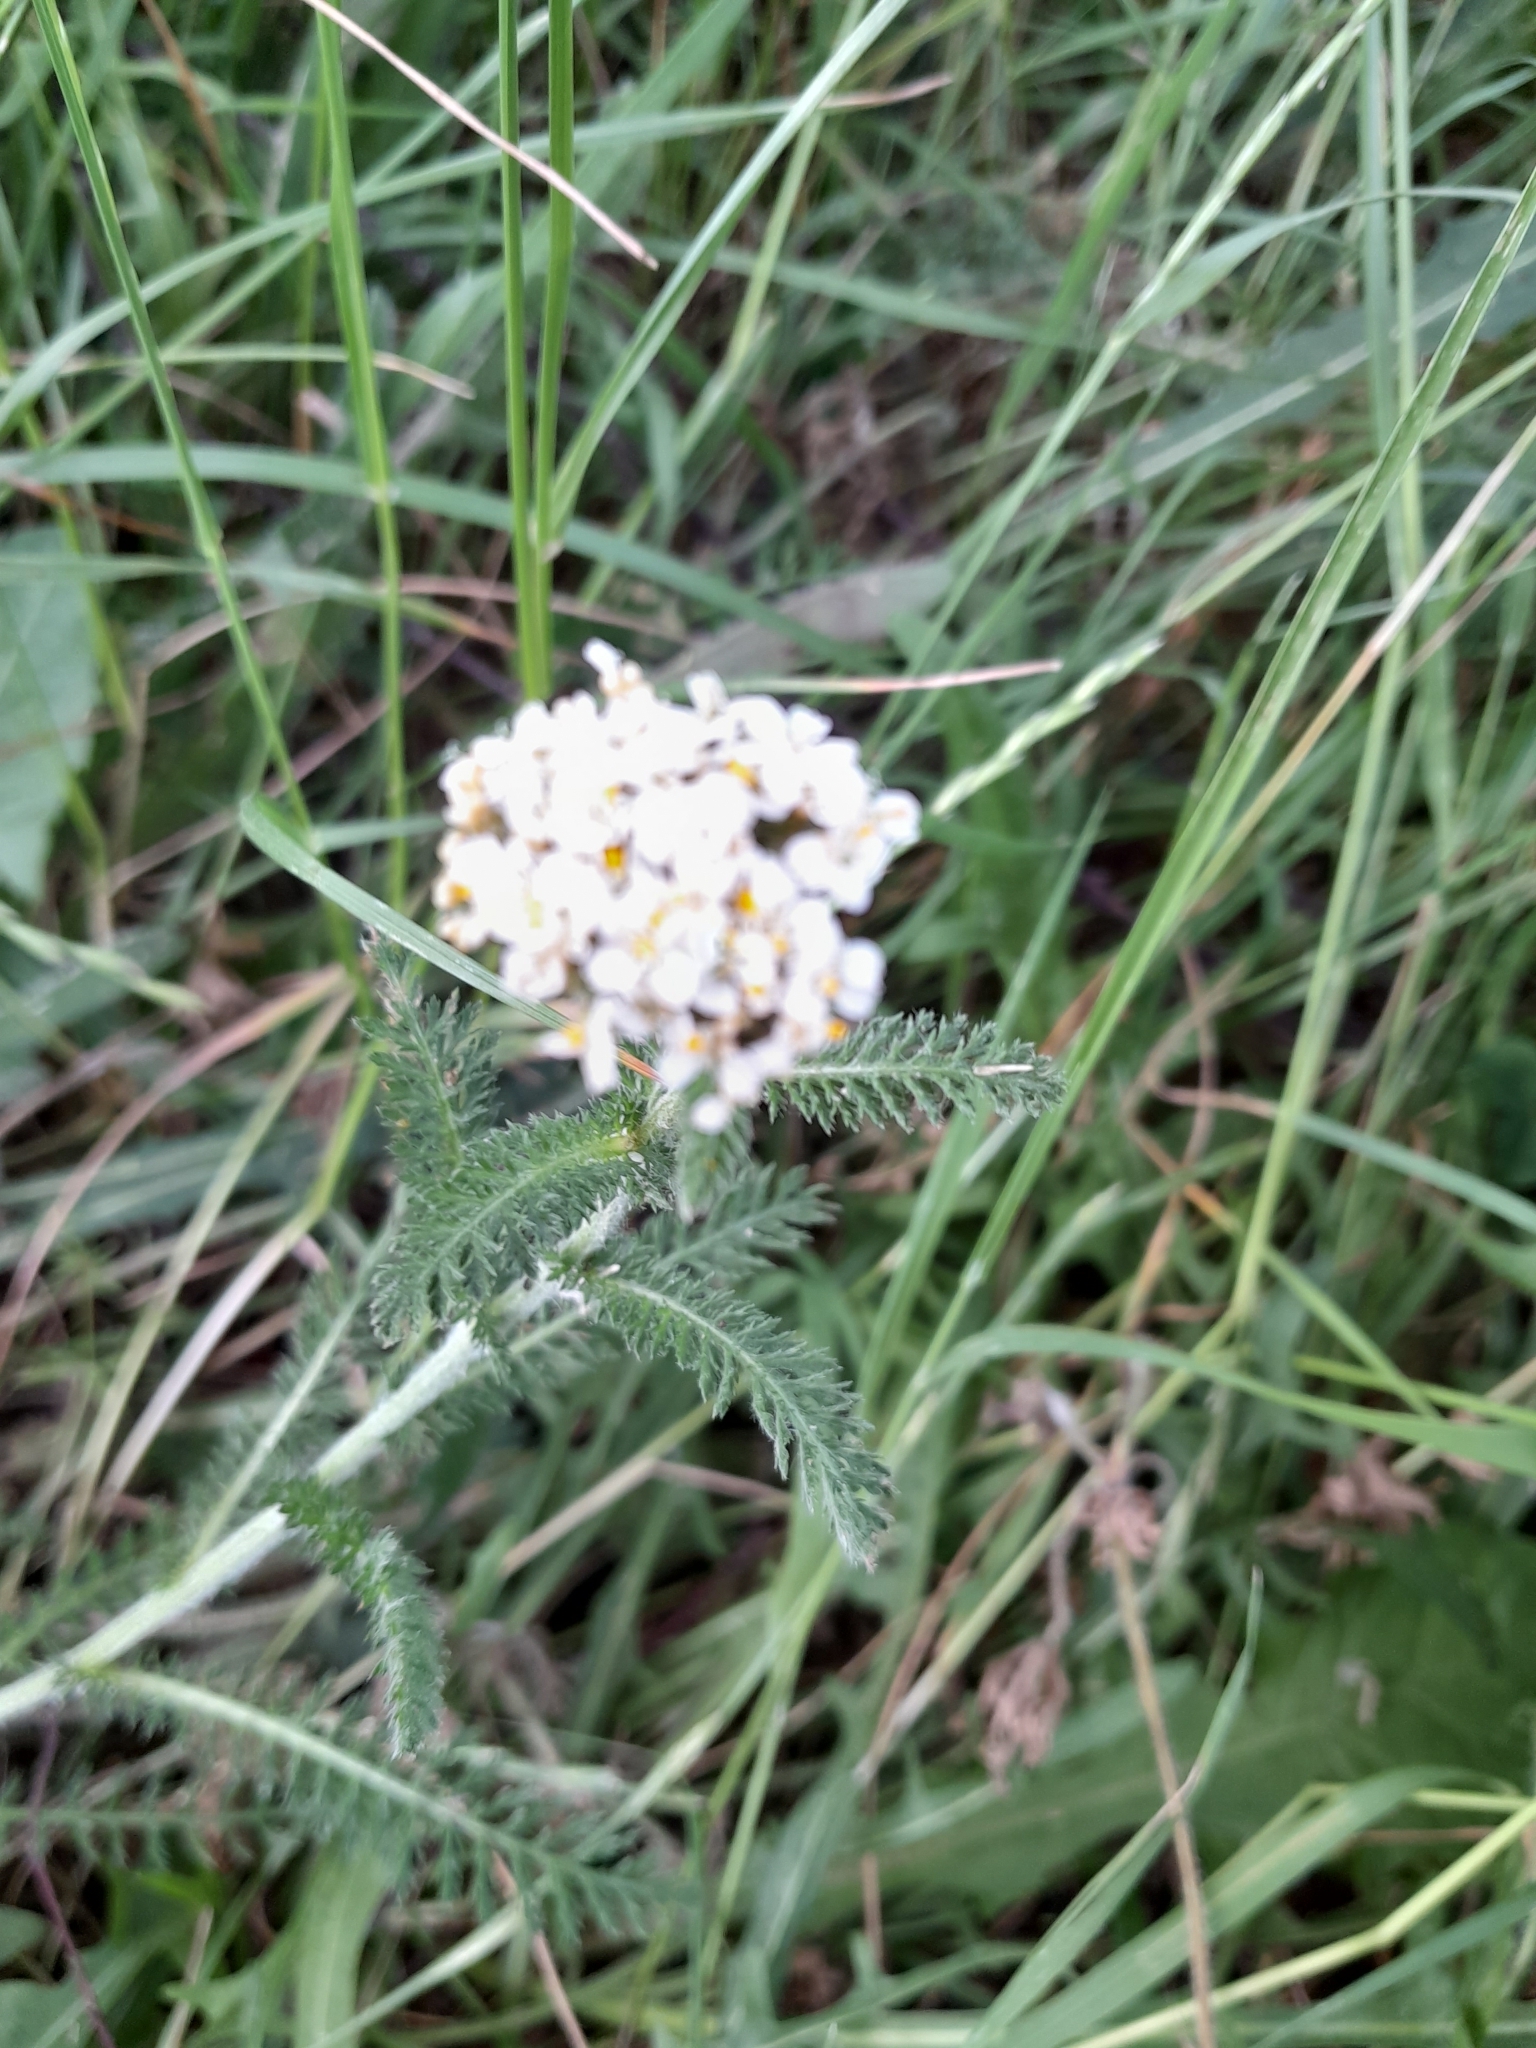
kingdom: Plantae
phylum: Tracheophyta
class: Magnoliopsida
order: Asterales
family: Asteraceae
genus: Achillea
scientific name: Achillea millefolium
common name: Yarrow
